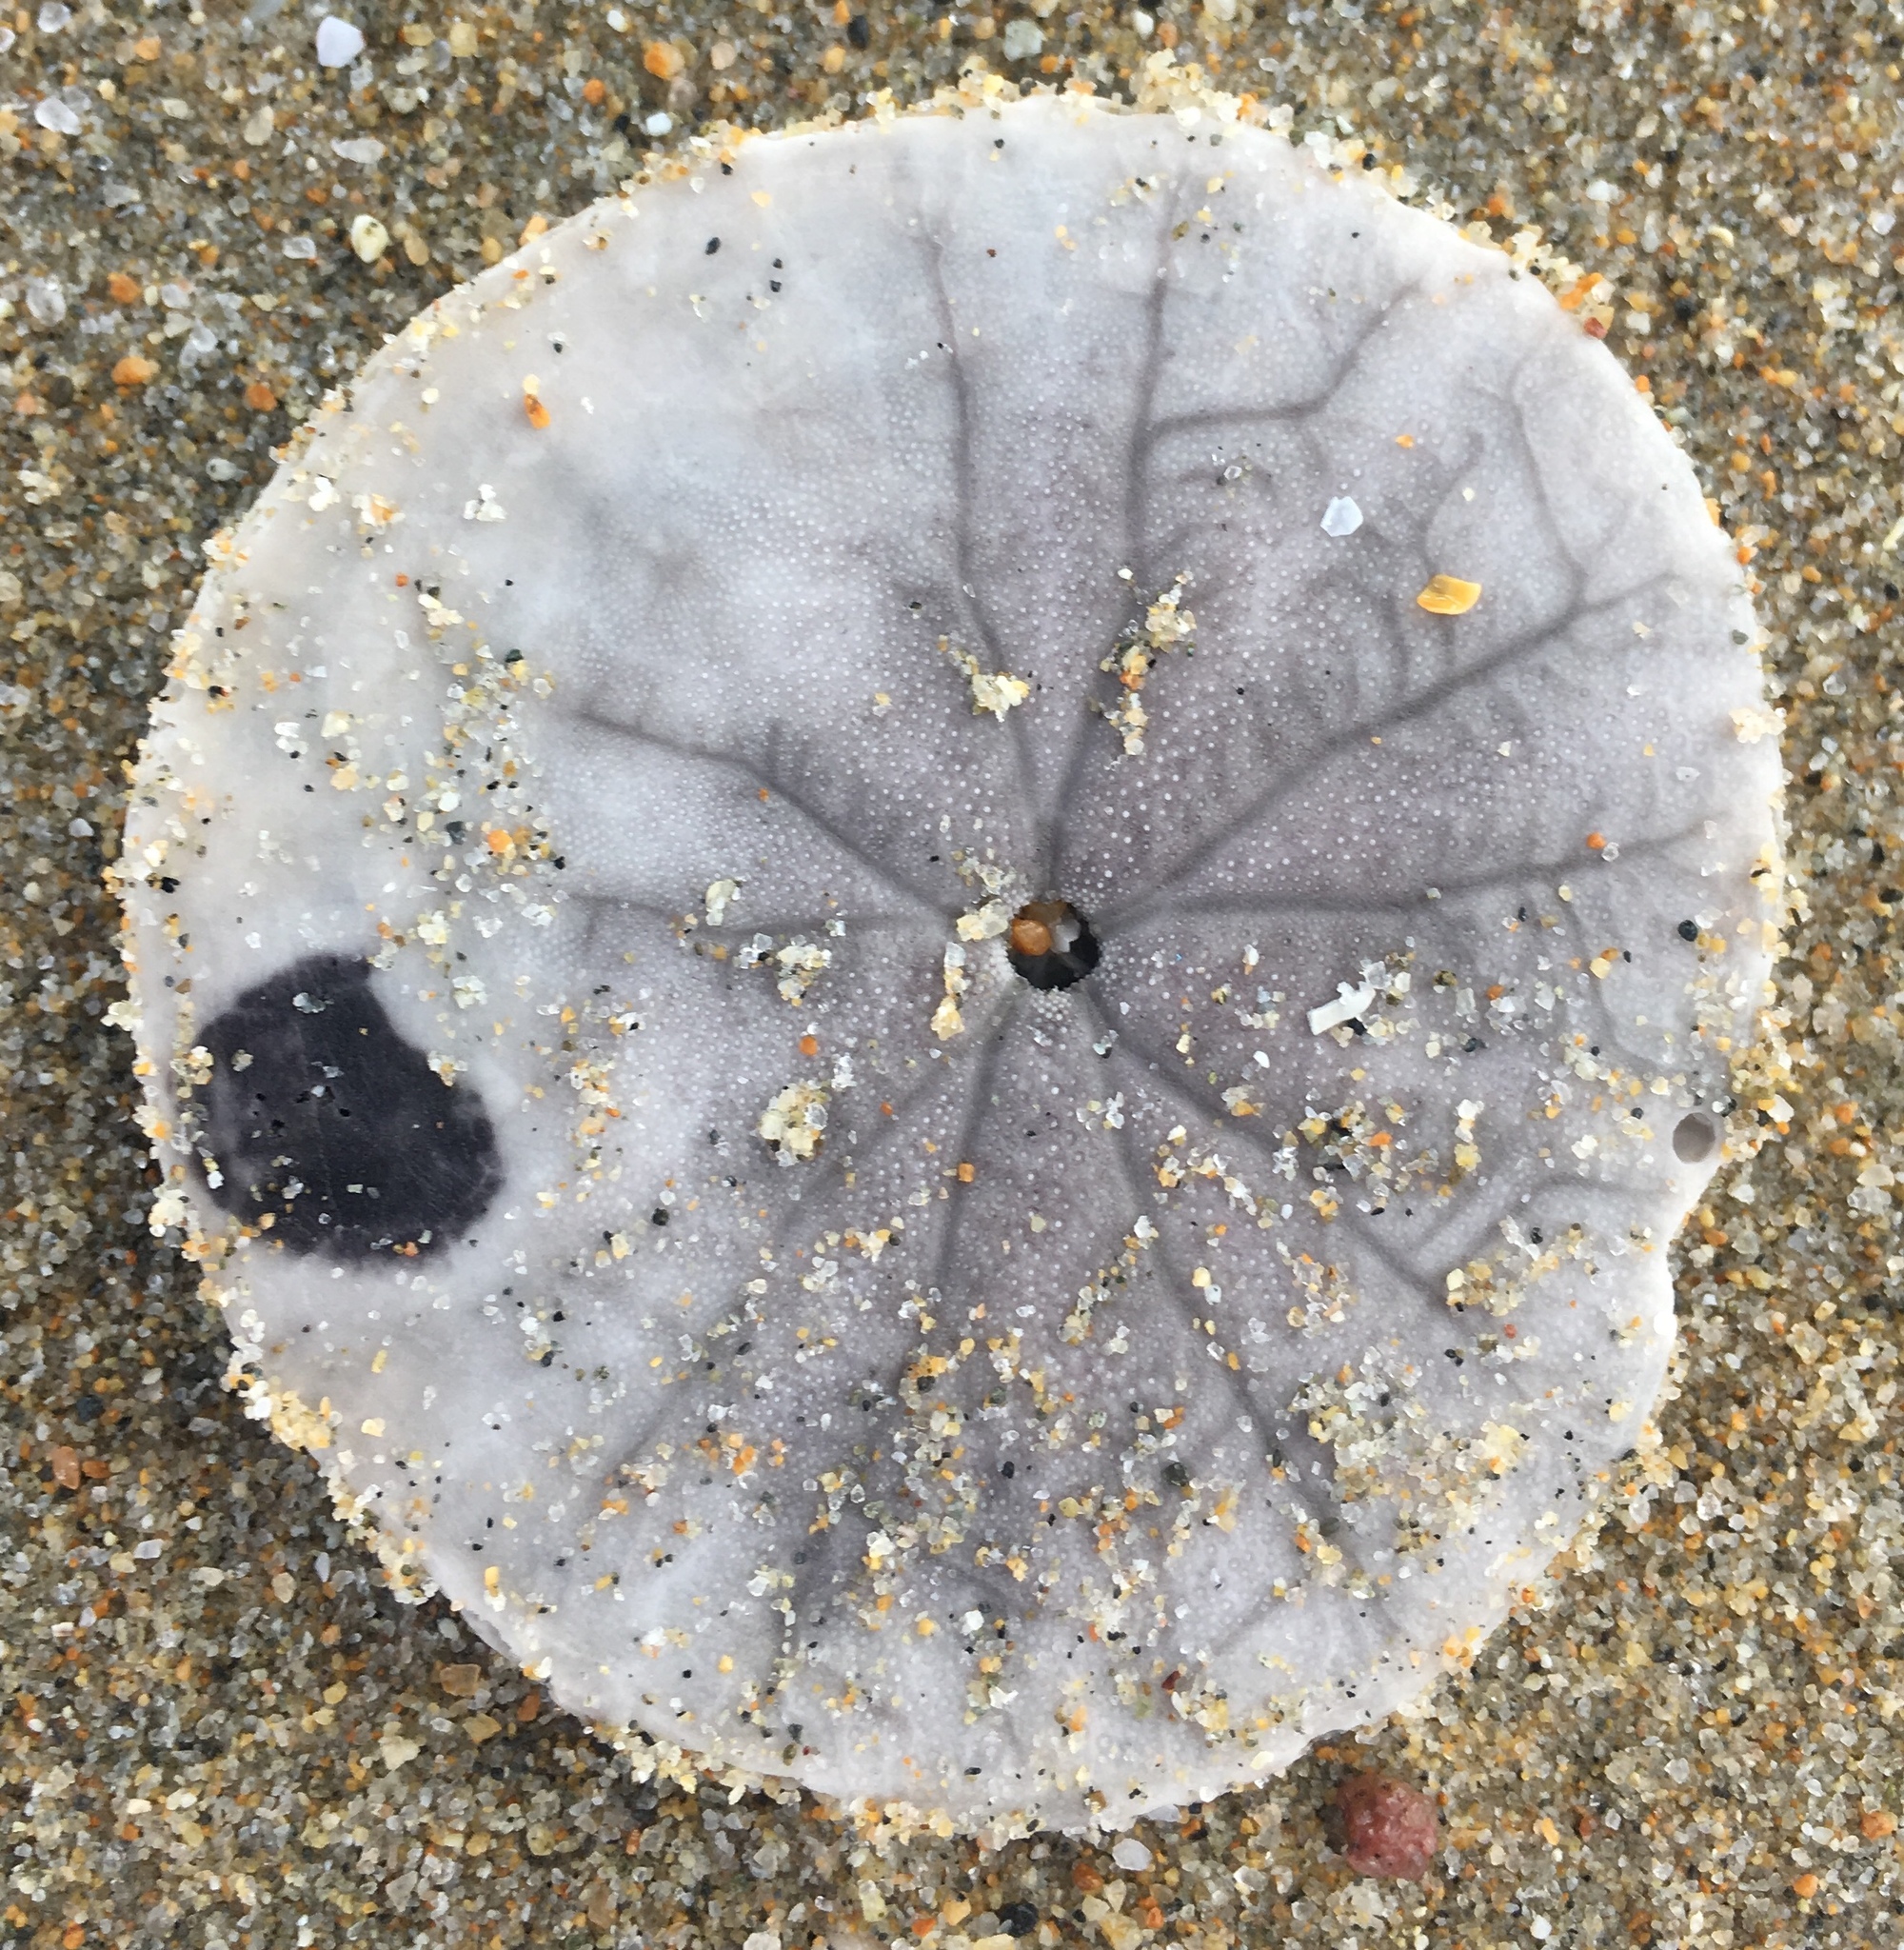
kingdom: Animalia
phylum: Echinodermata
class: Echinoidea
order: Echinolampadacea
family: Dendrasteridae
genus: Dendraster
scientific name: Dendraster excentricus
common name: Eccentric sand dollar sea urchin
